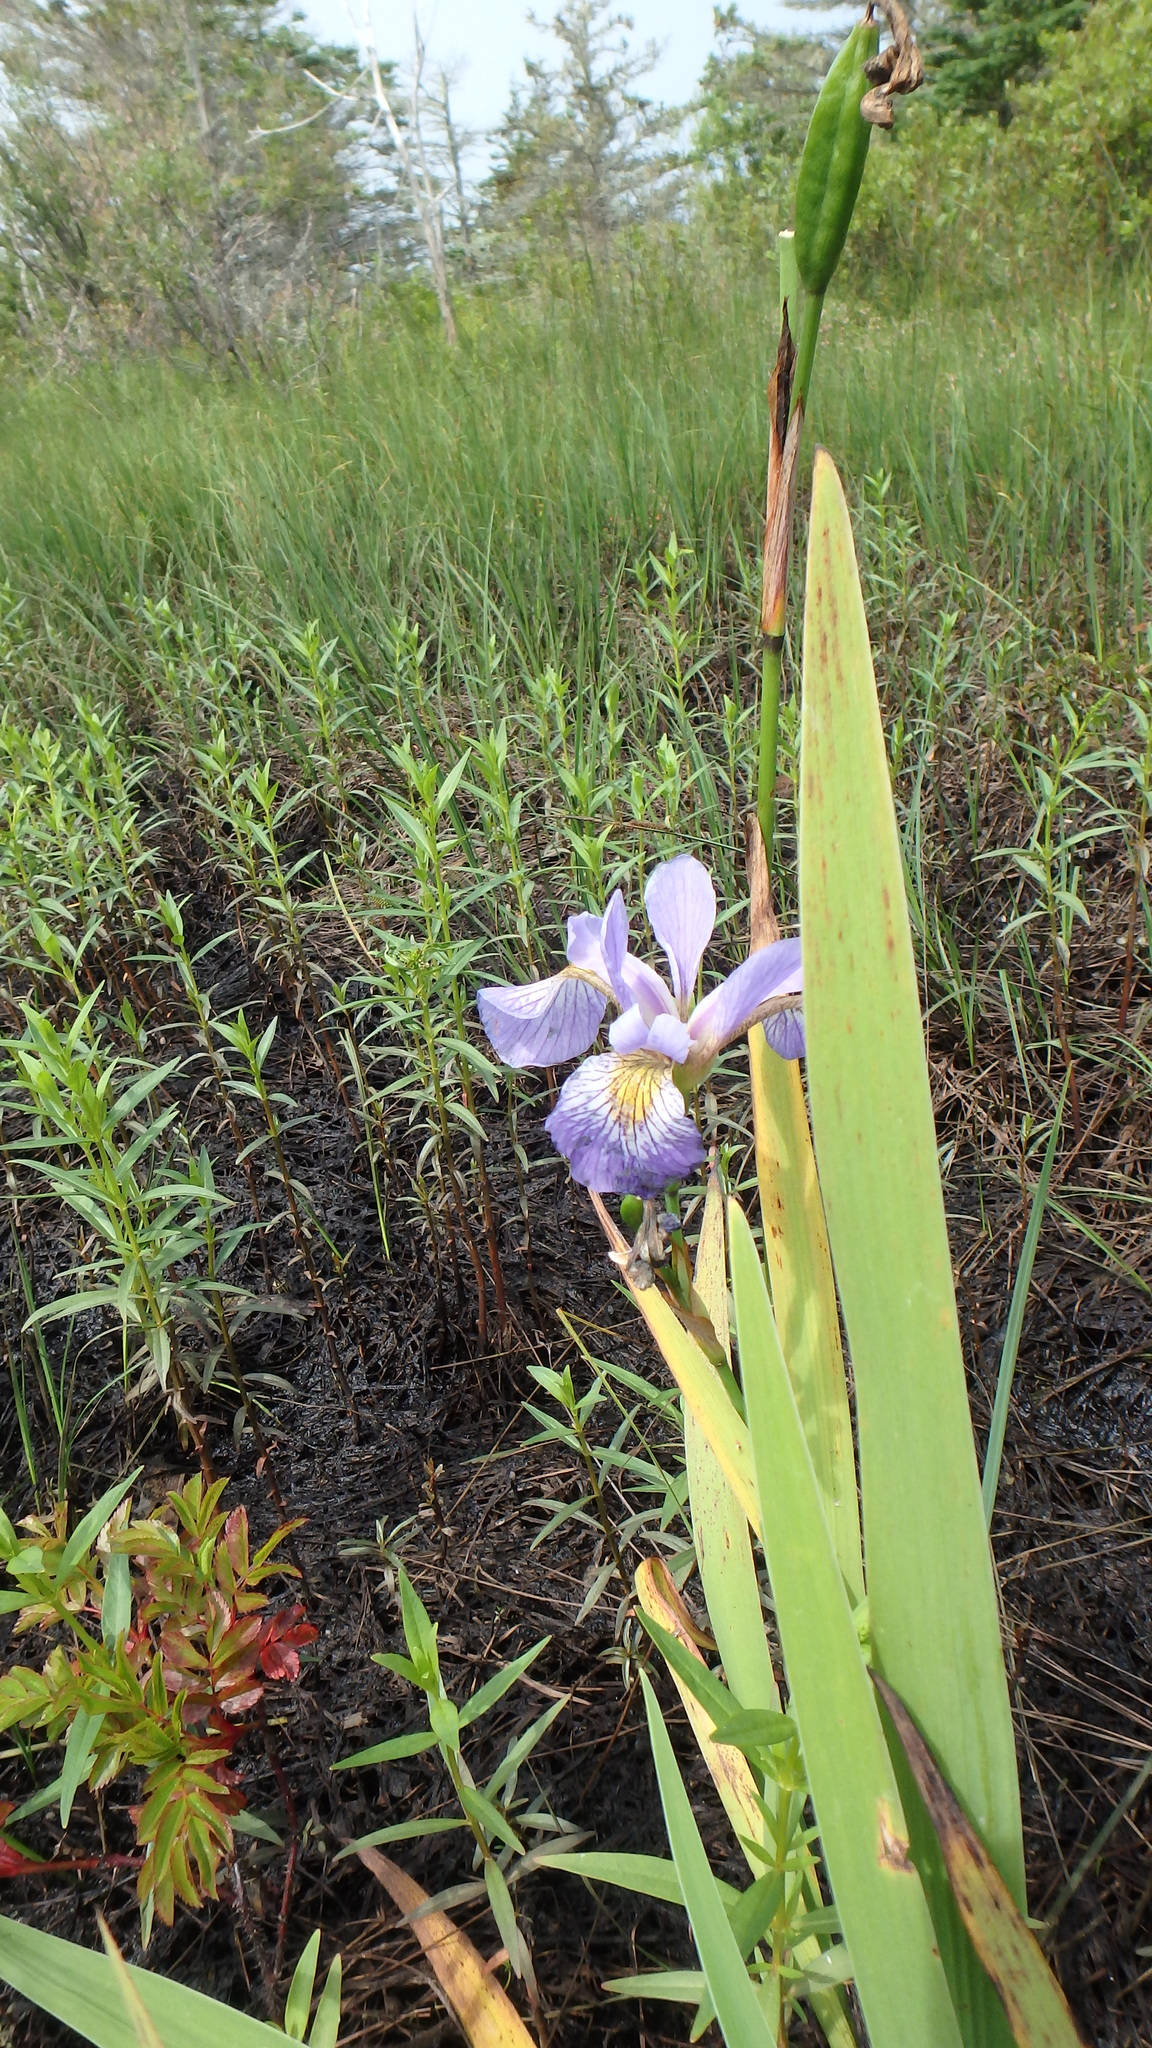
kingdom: Plantae
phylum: Tracheophyta
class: Liliopsida
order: Asparagales
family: Iridaceae
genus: Iris
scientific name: Iris versicolor
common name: Purple iris
